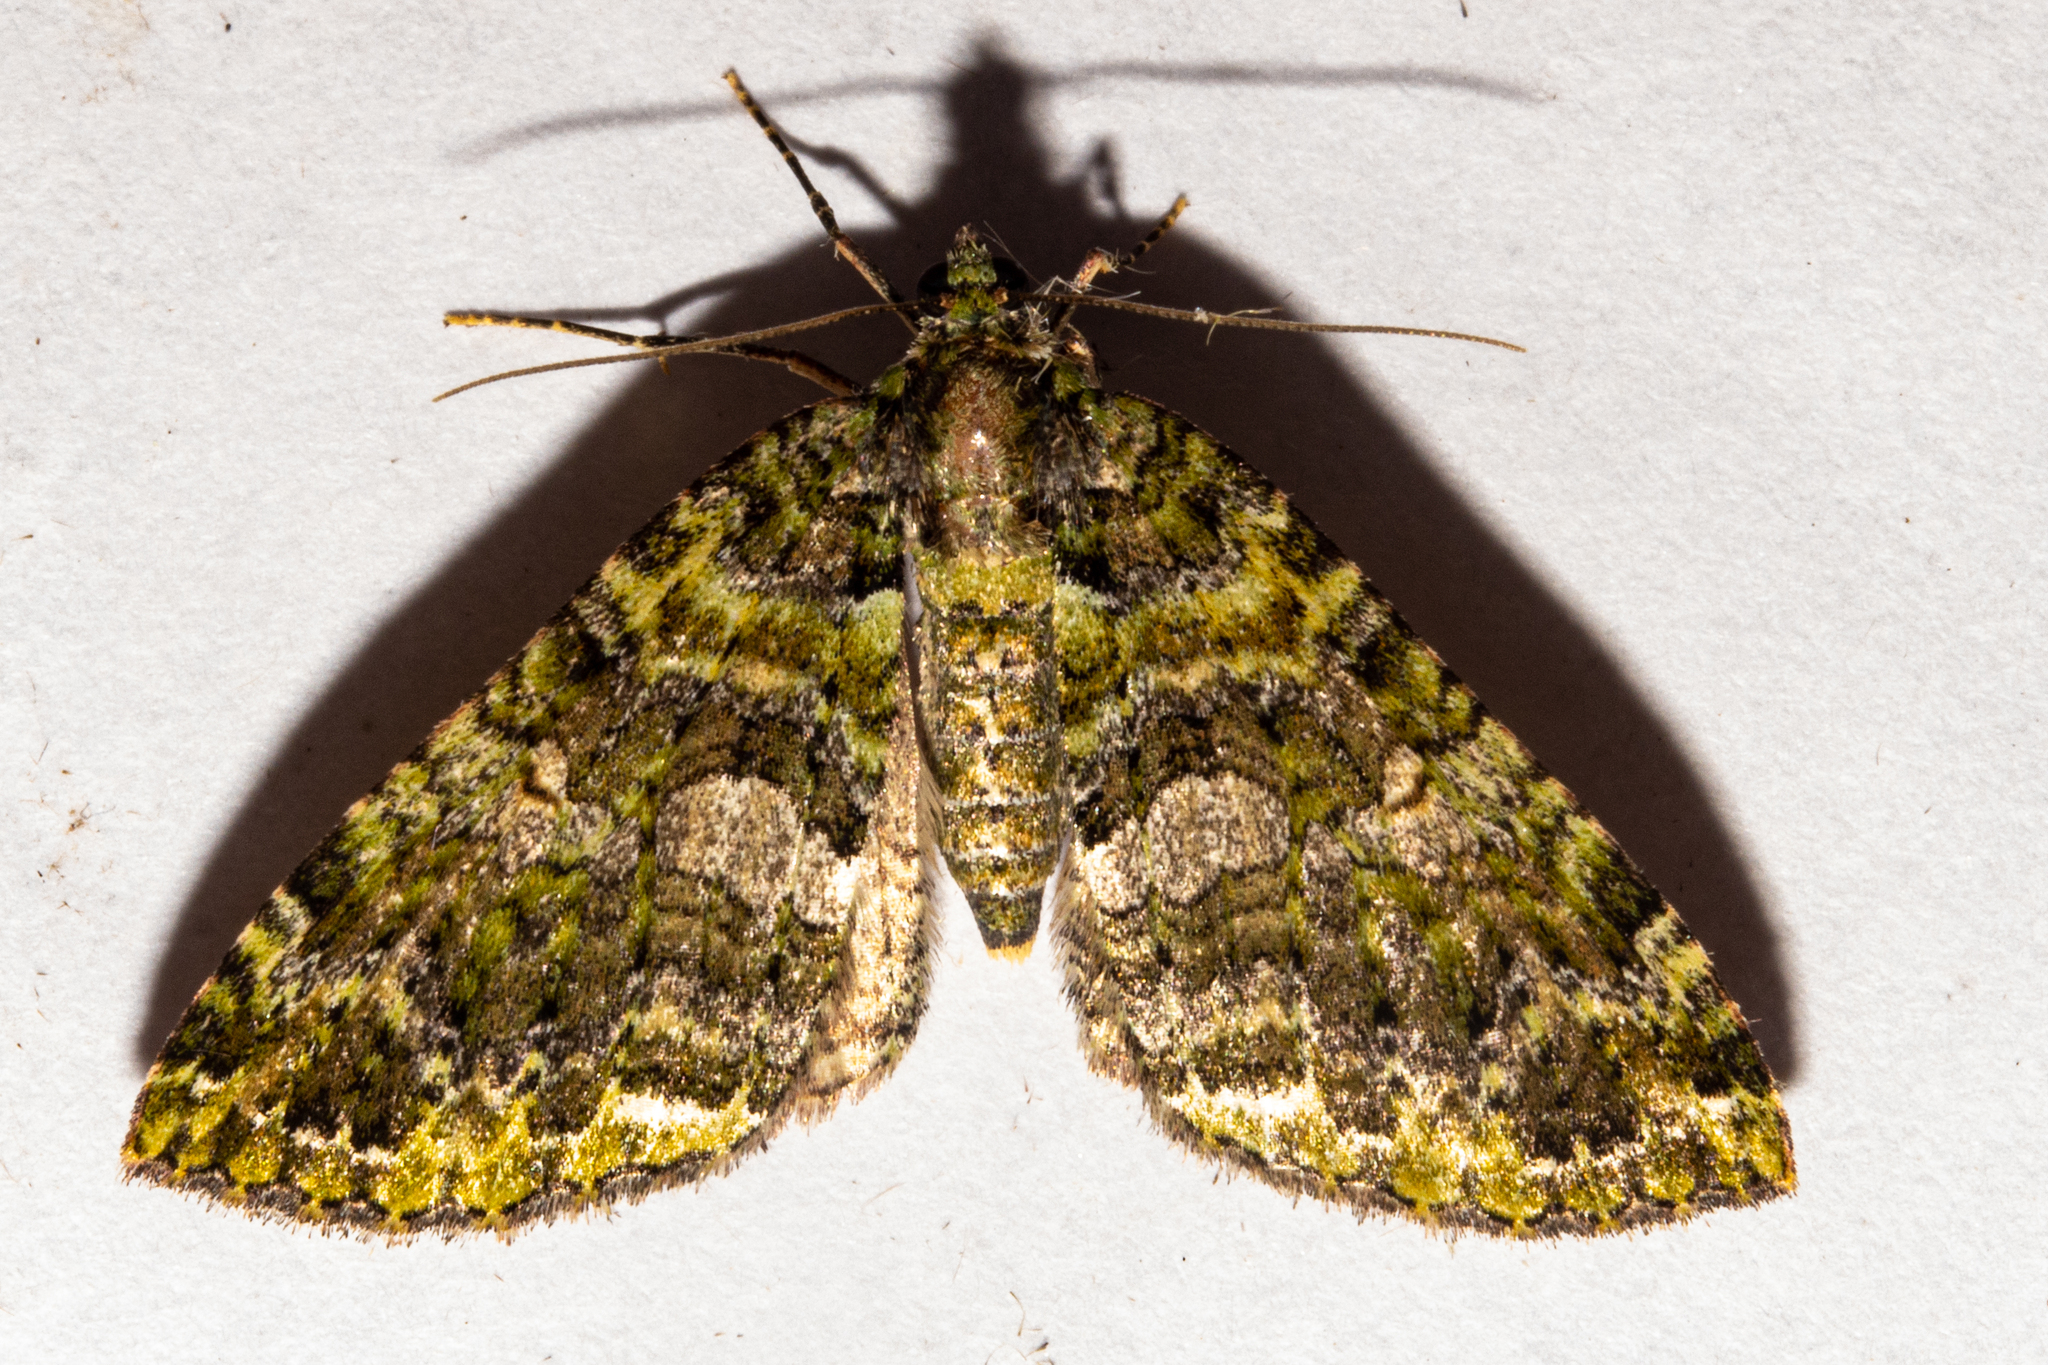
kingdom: Animalia
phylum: Arthropoda
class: Insecta
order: Lepidoptera
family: Geometridae
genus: Austrocidaria
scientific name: Austrocidaria similata
